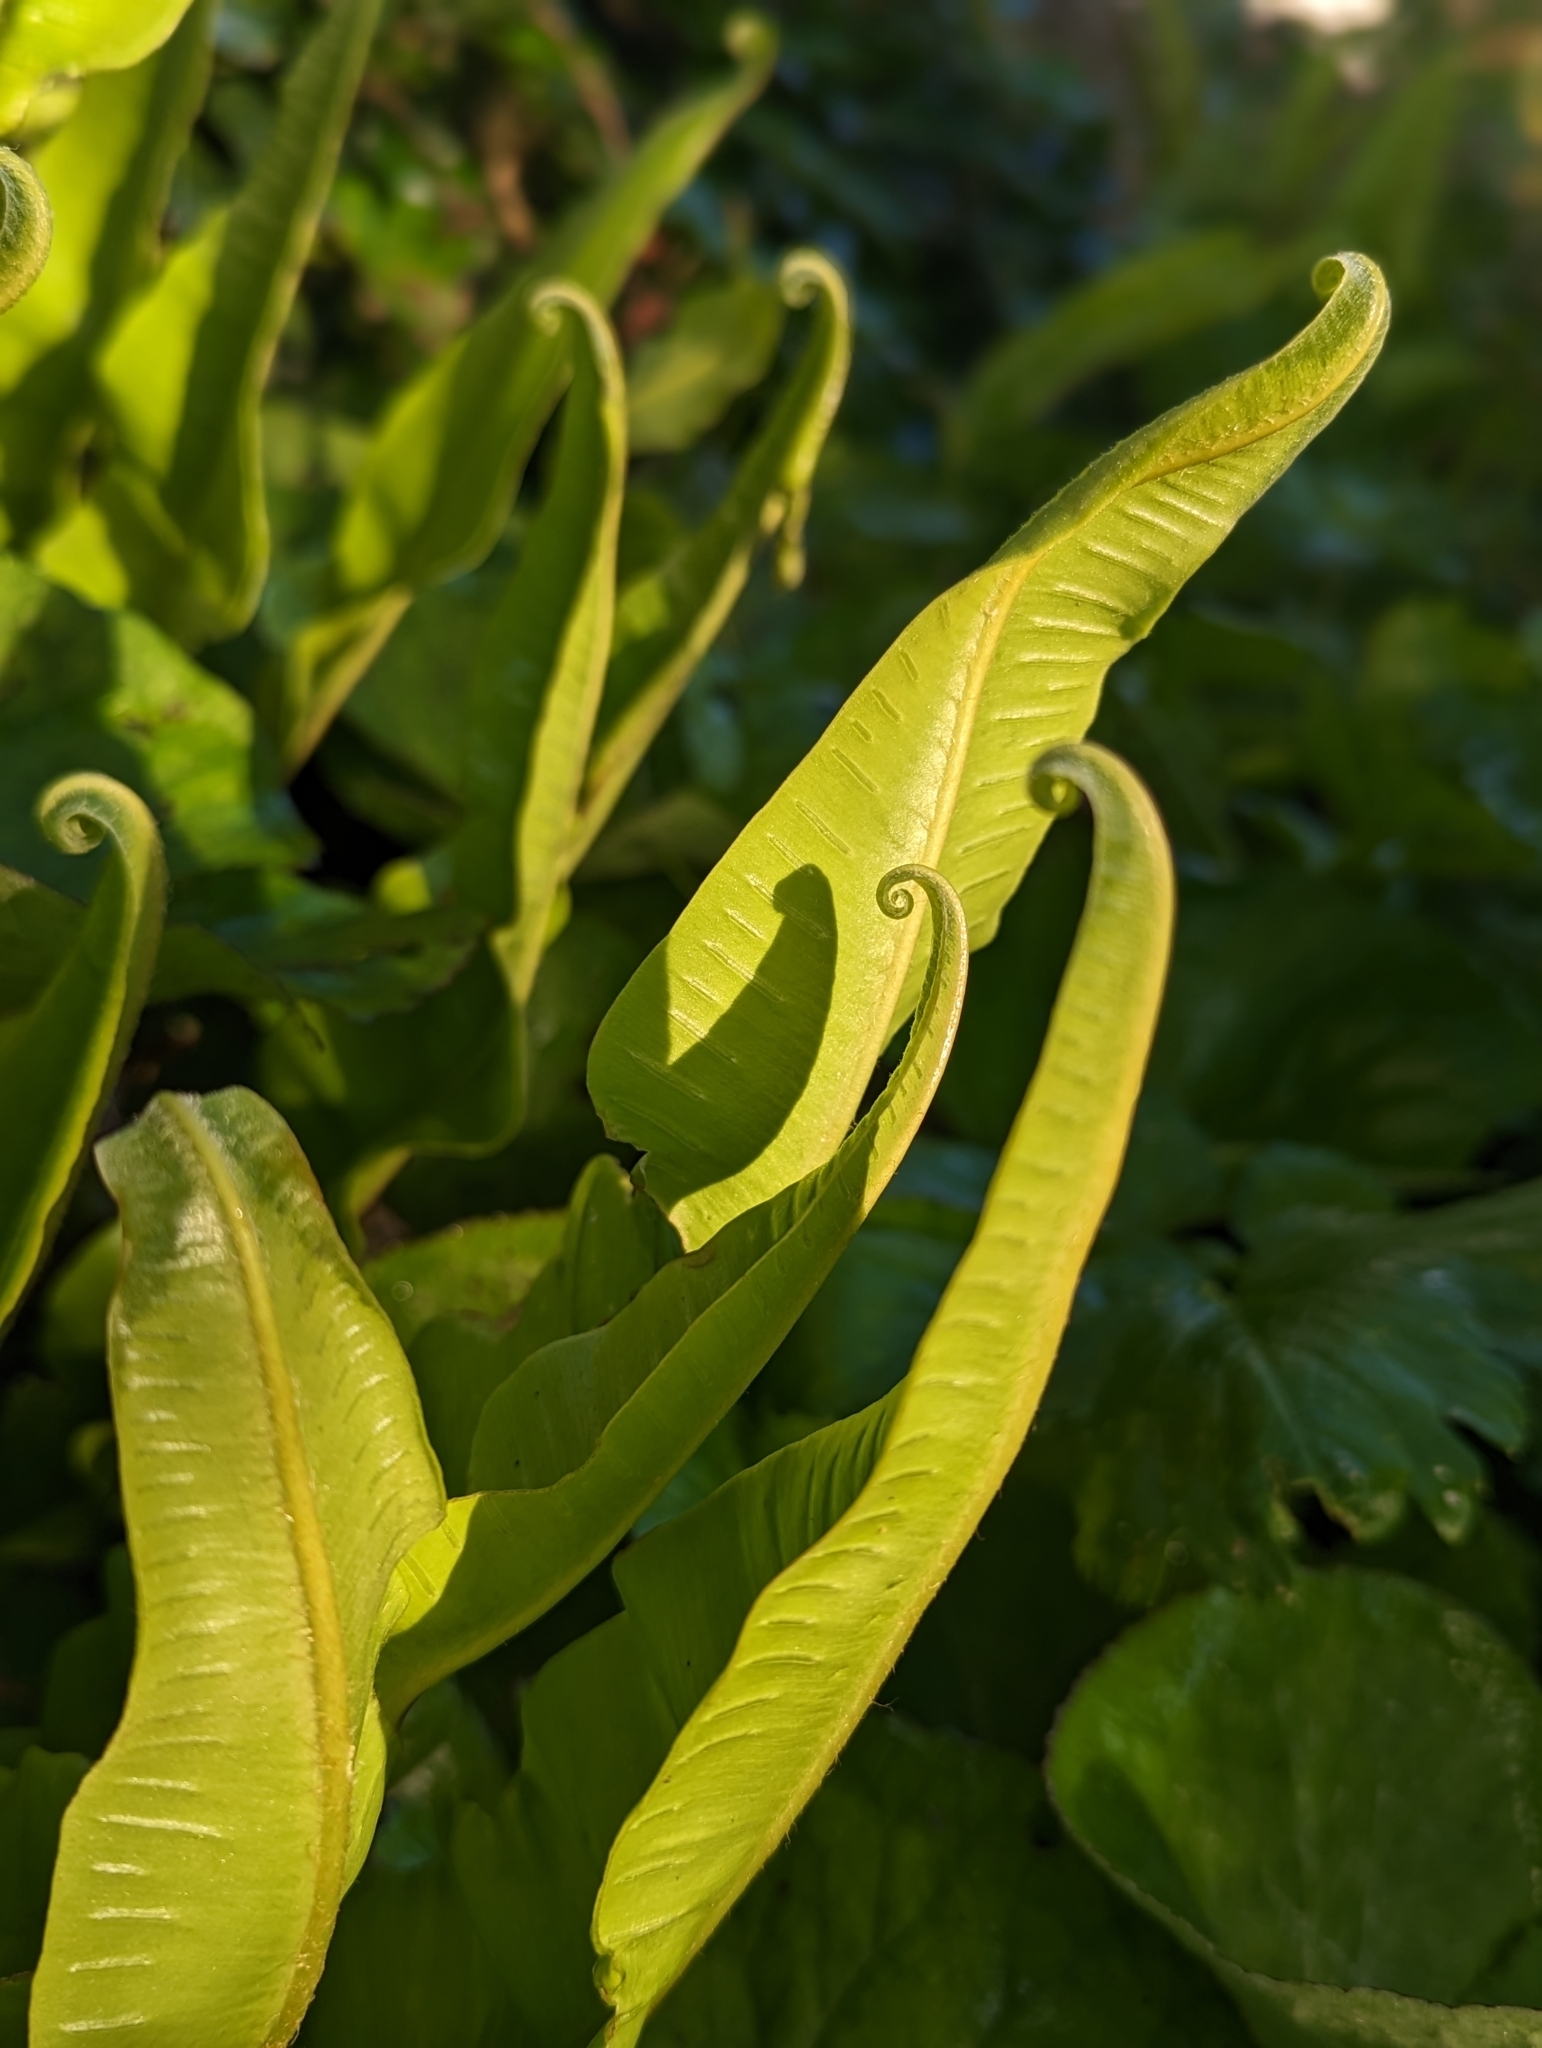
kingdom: Plantae
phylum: Tracheophyta
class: Polypodiopsida
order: Polypodiales
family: Aspleniaceae
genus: Asplenium
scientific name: Asplenium scolopendrium
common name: Hart's-tongue fern
